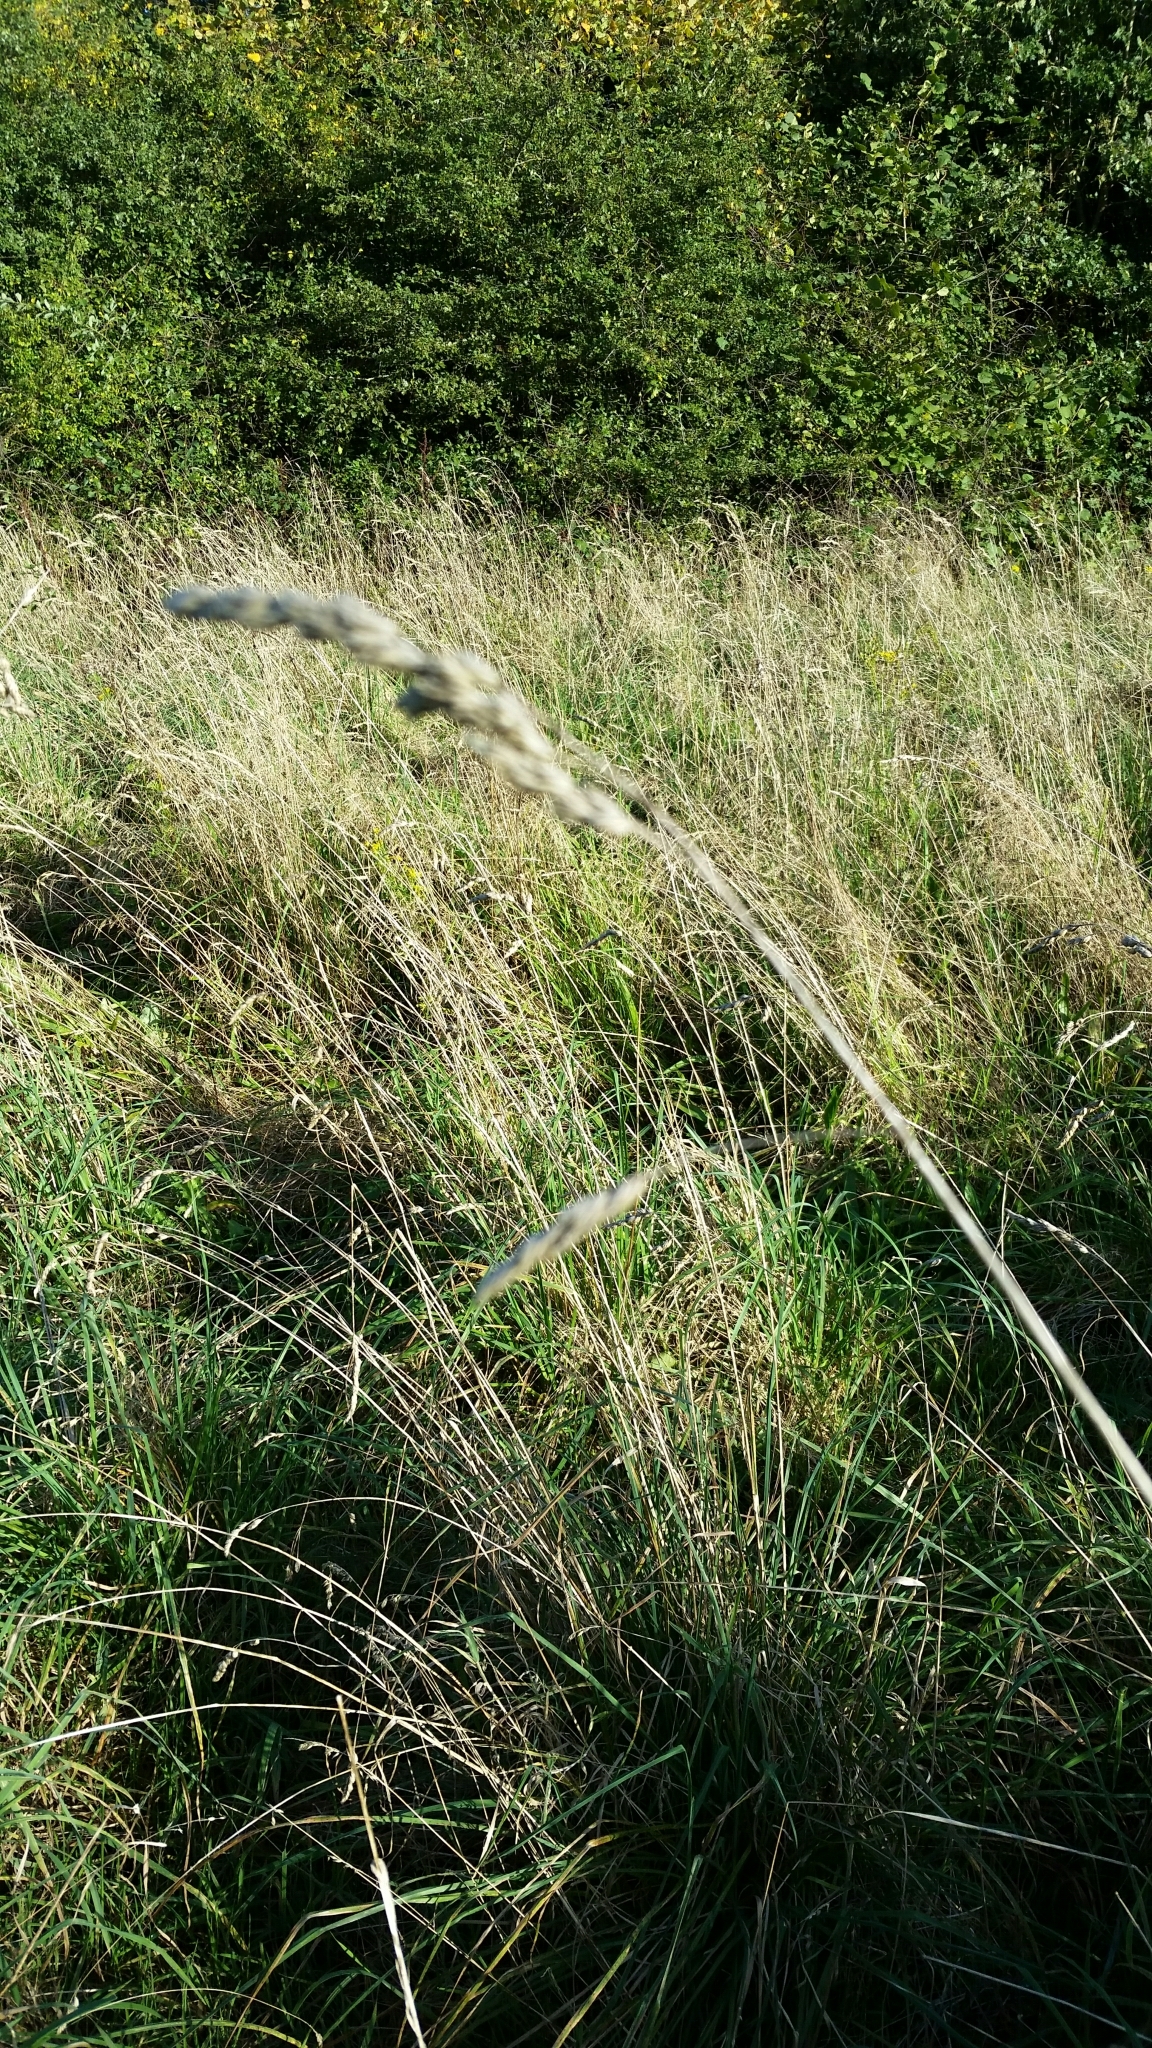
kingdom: Plantae
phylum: Tracheophyta
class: Liliopsida
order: Poales
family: Poaceae
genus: Dactylis
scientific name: Dactylis glomerata
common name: Orchardgrass
